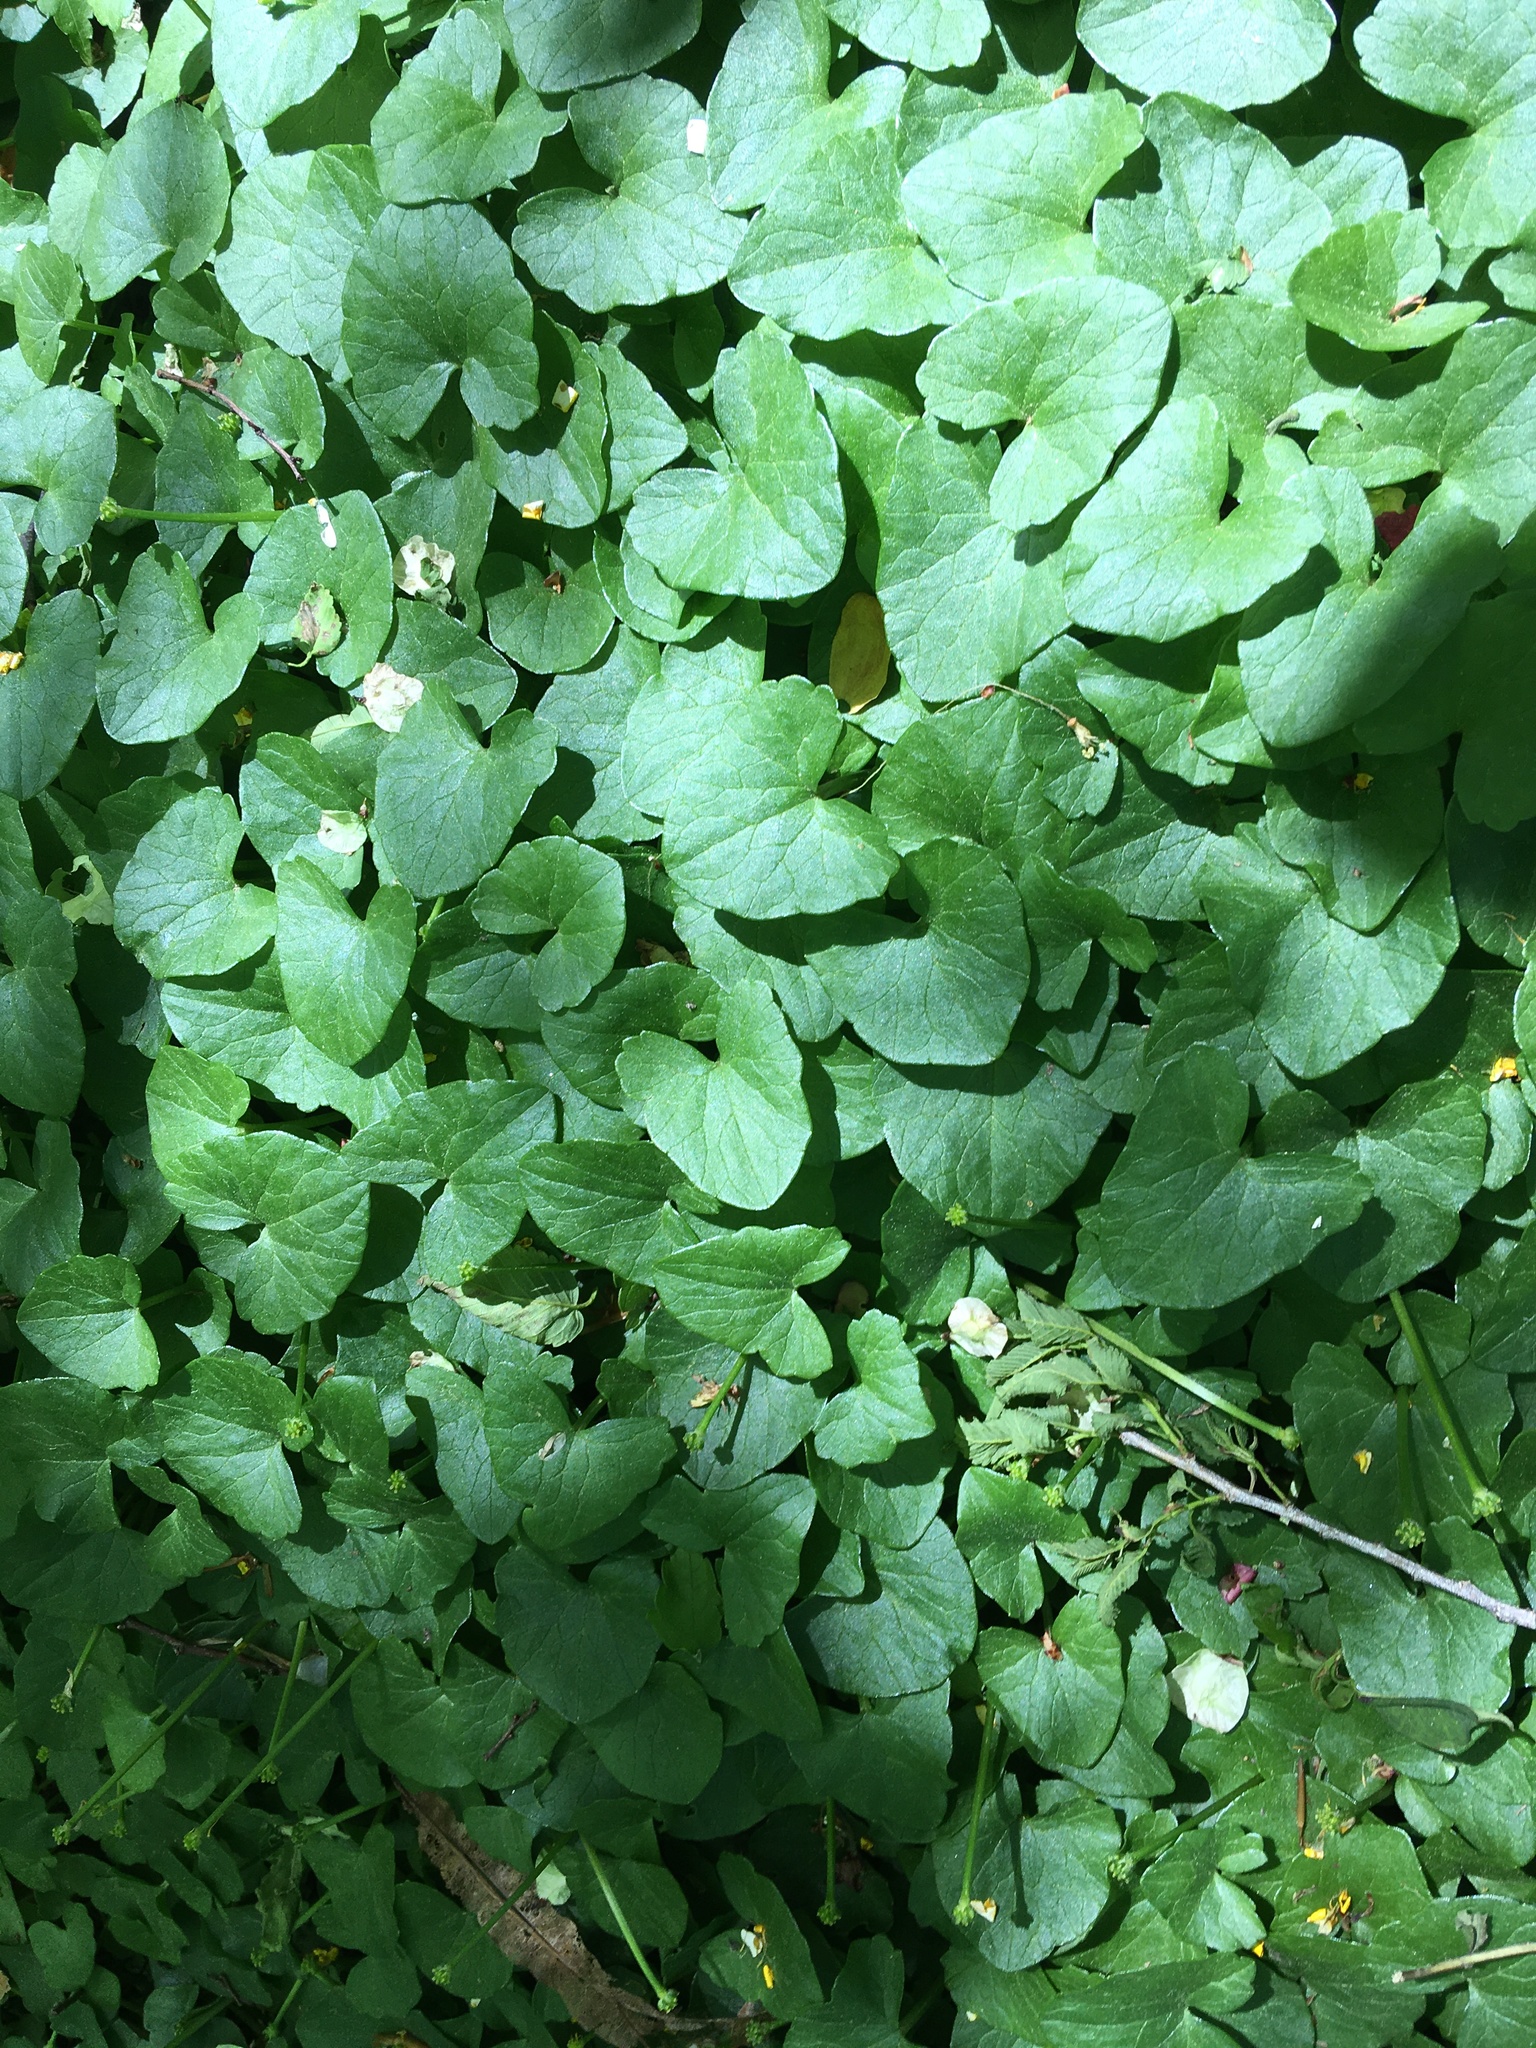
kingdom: Plantae
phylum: Tracheophyta
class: Magnoliopsida
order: Ranunculales
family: Ranunculaceae
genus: Ficaria
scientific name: Ficaria verna
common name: Lesser celandine
